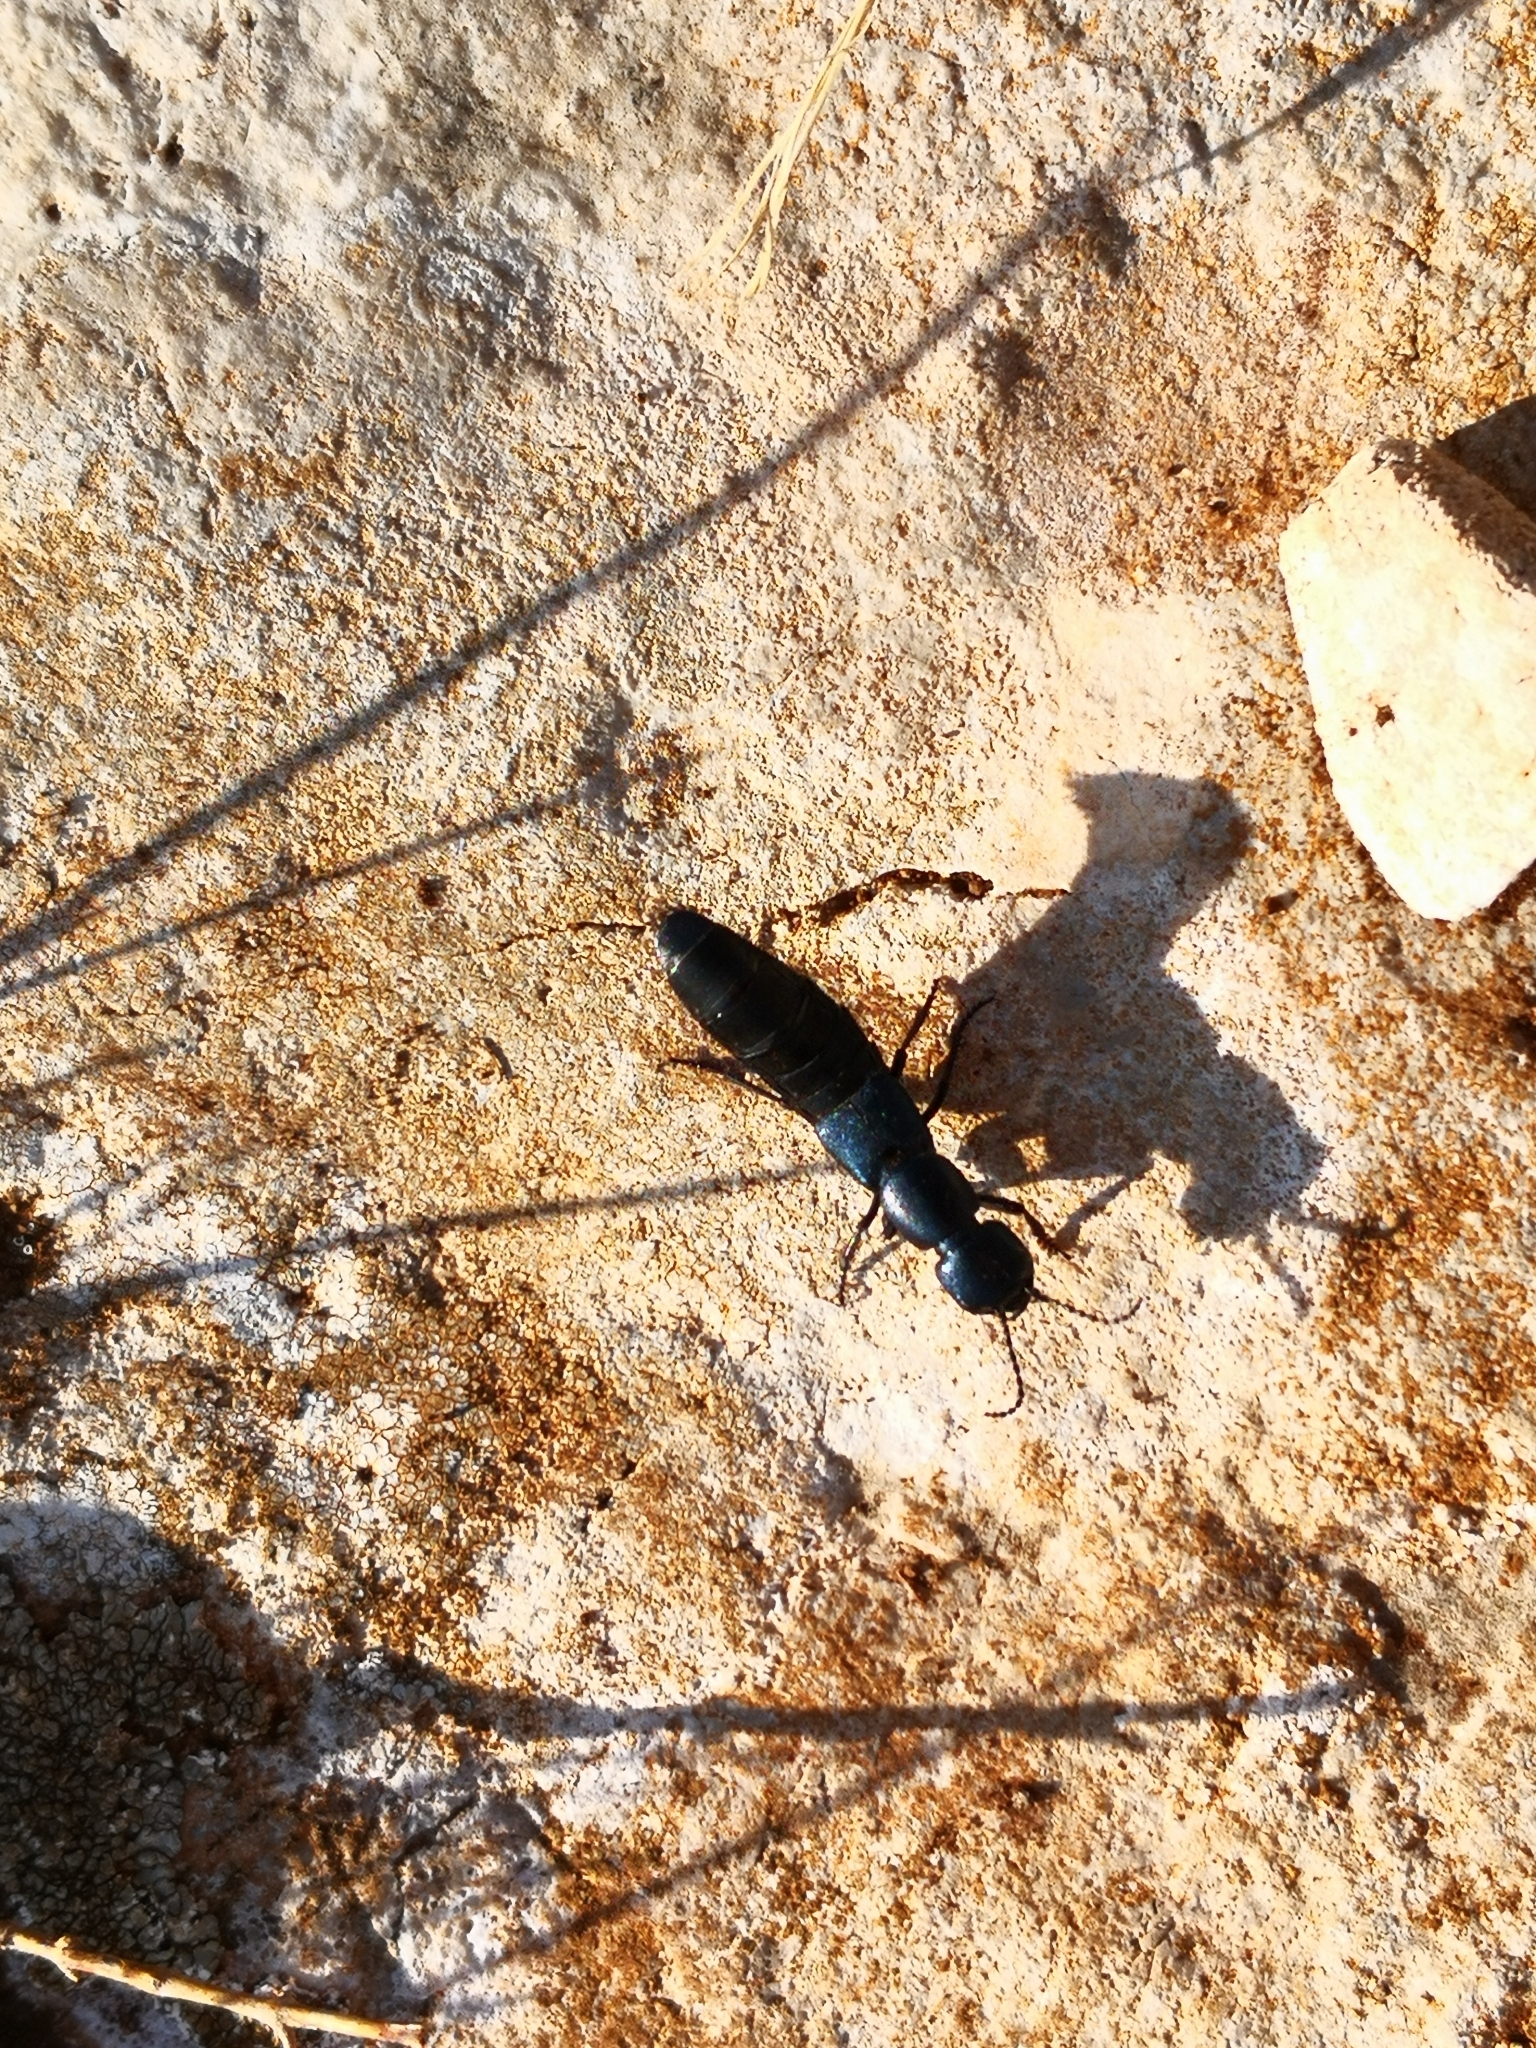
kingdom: Animalia
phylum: Arthropoda
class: Insecta
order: Coleoptera
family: Staphylinidae
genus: Ocypus
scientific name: Ocypus ophthalmicus
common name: Blue rove-beetle
